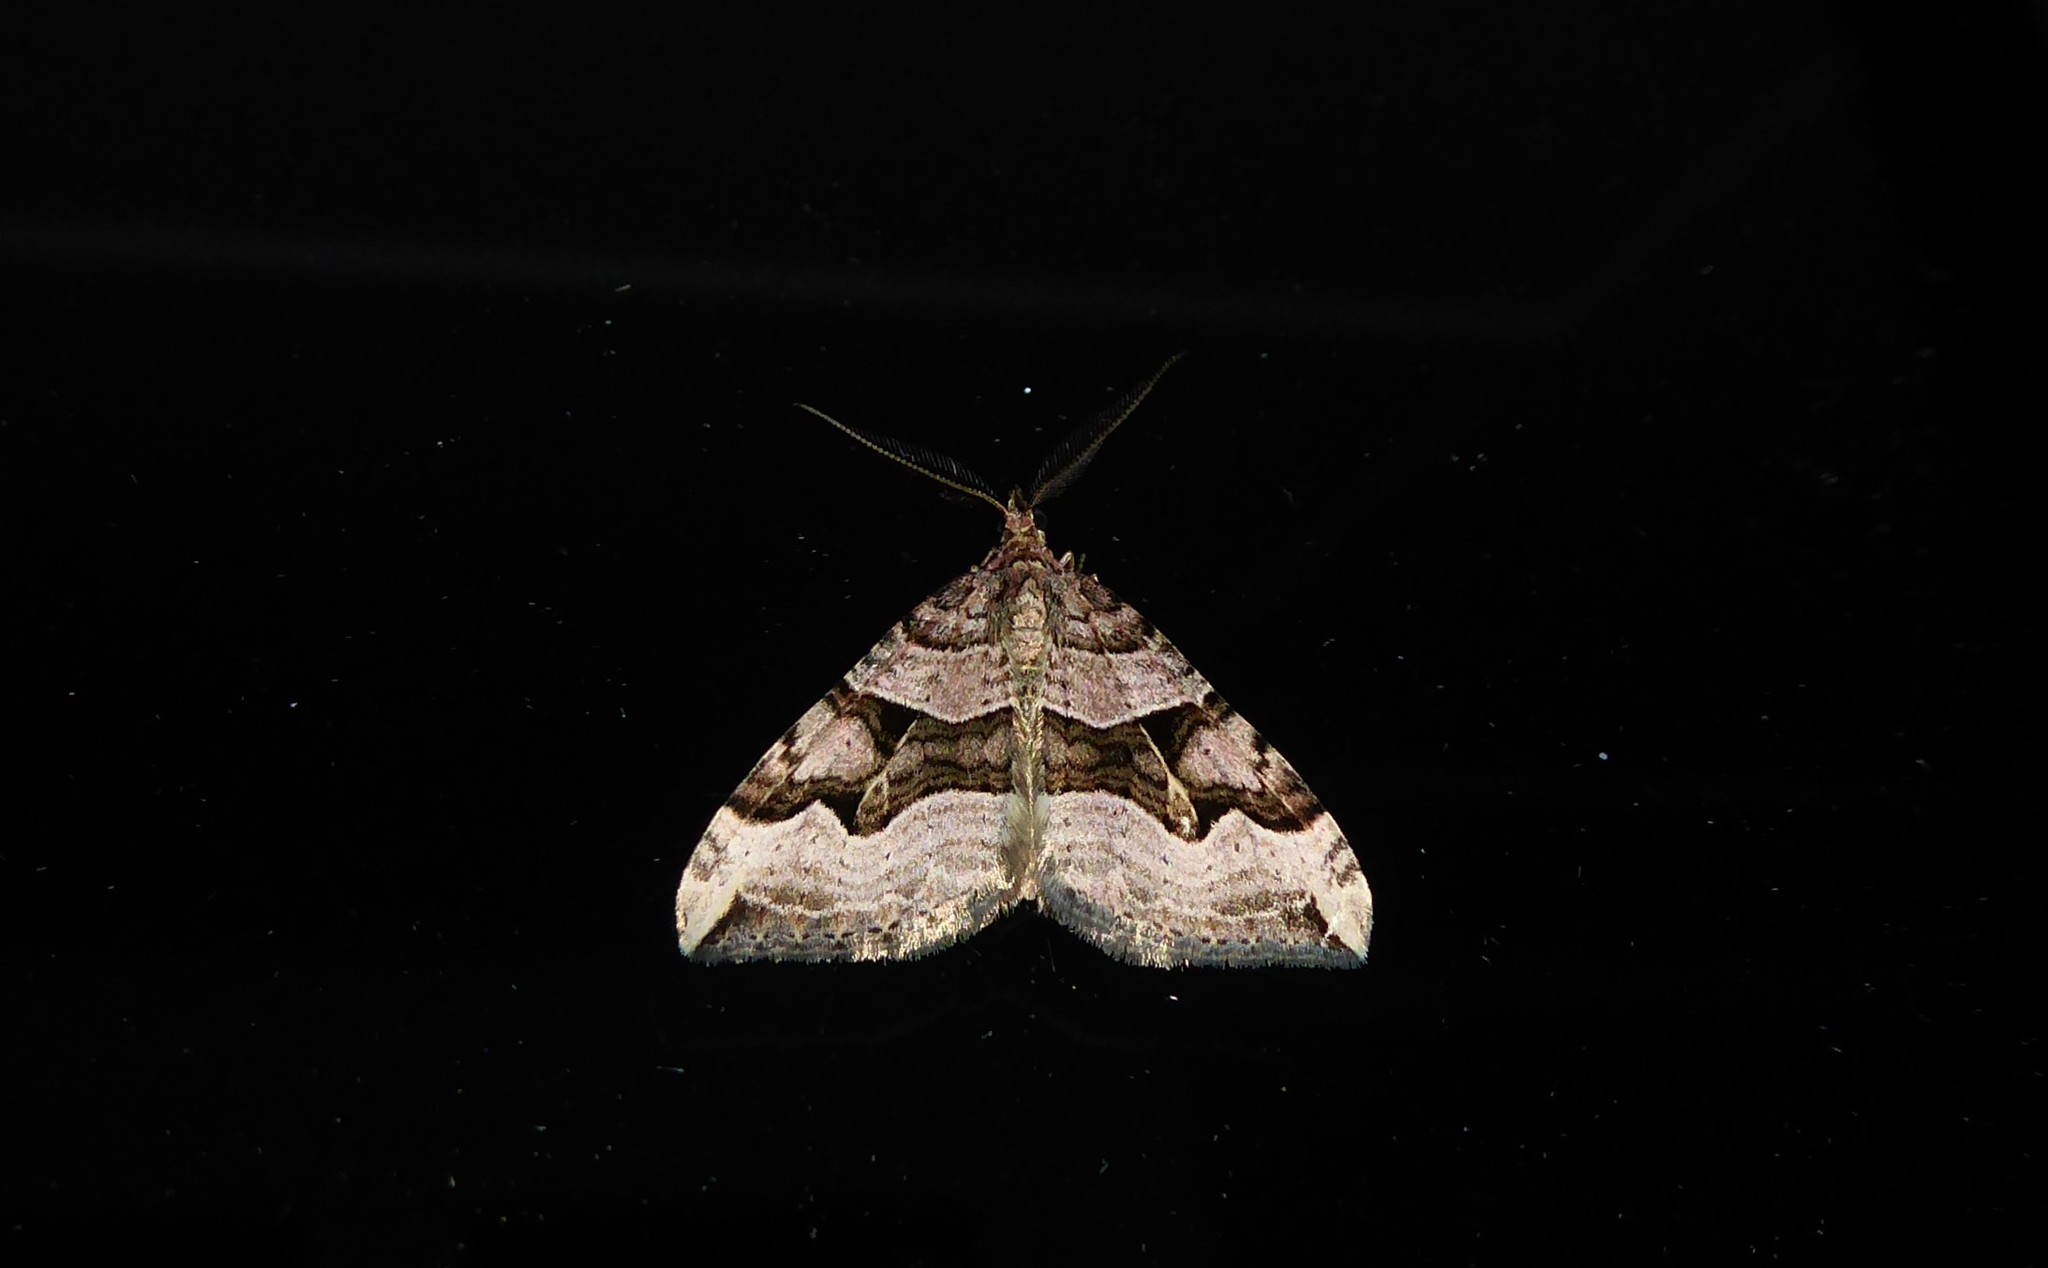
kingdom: Animalia
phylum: Arthropoda
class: Insecta
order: Lepidoptera
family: Geometridae
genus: Xanthorhoe
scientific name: Xanthorhoe semifissata
